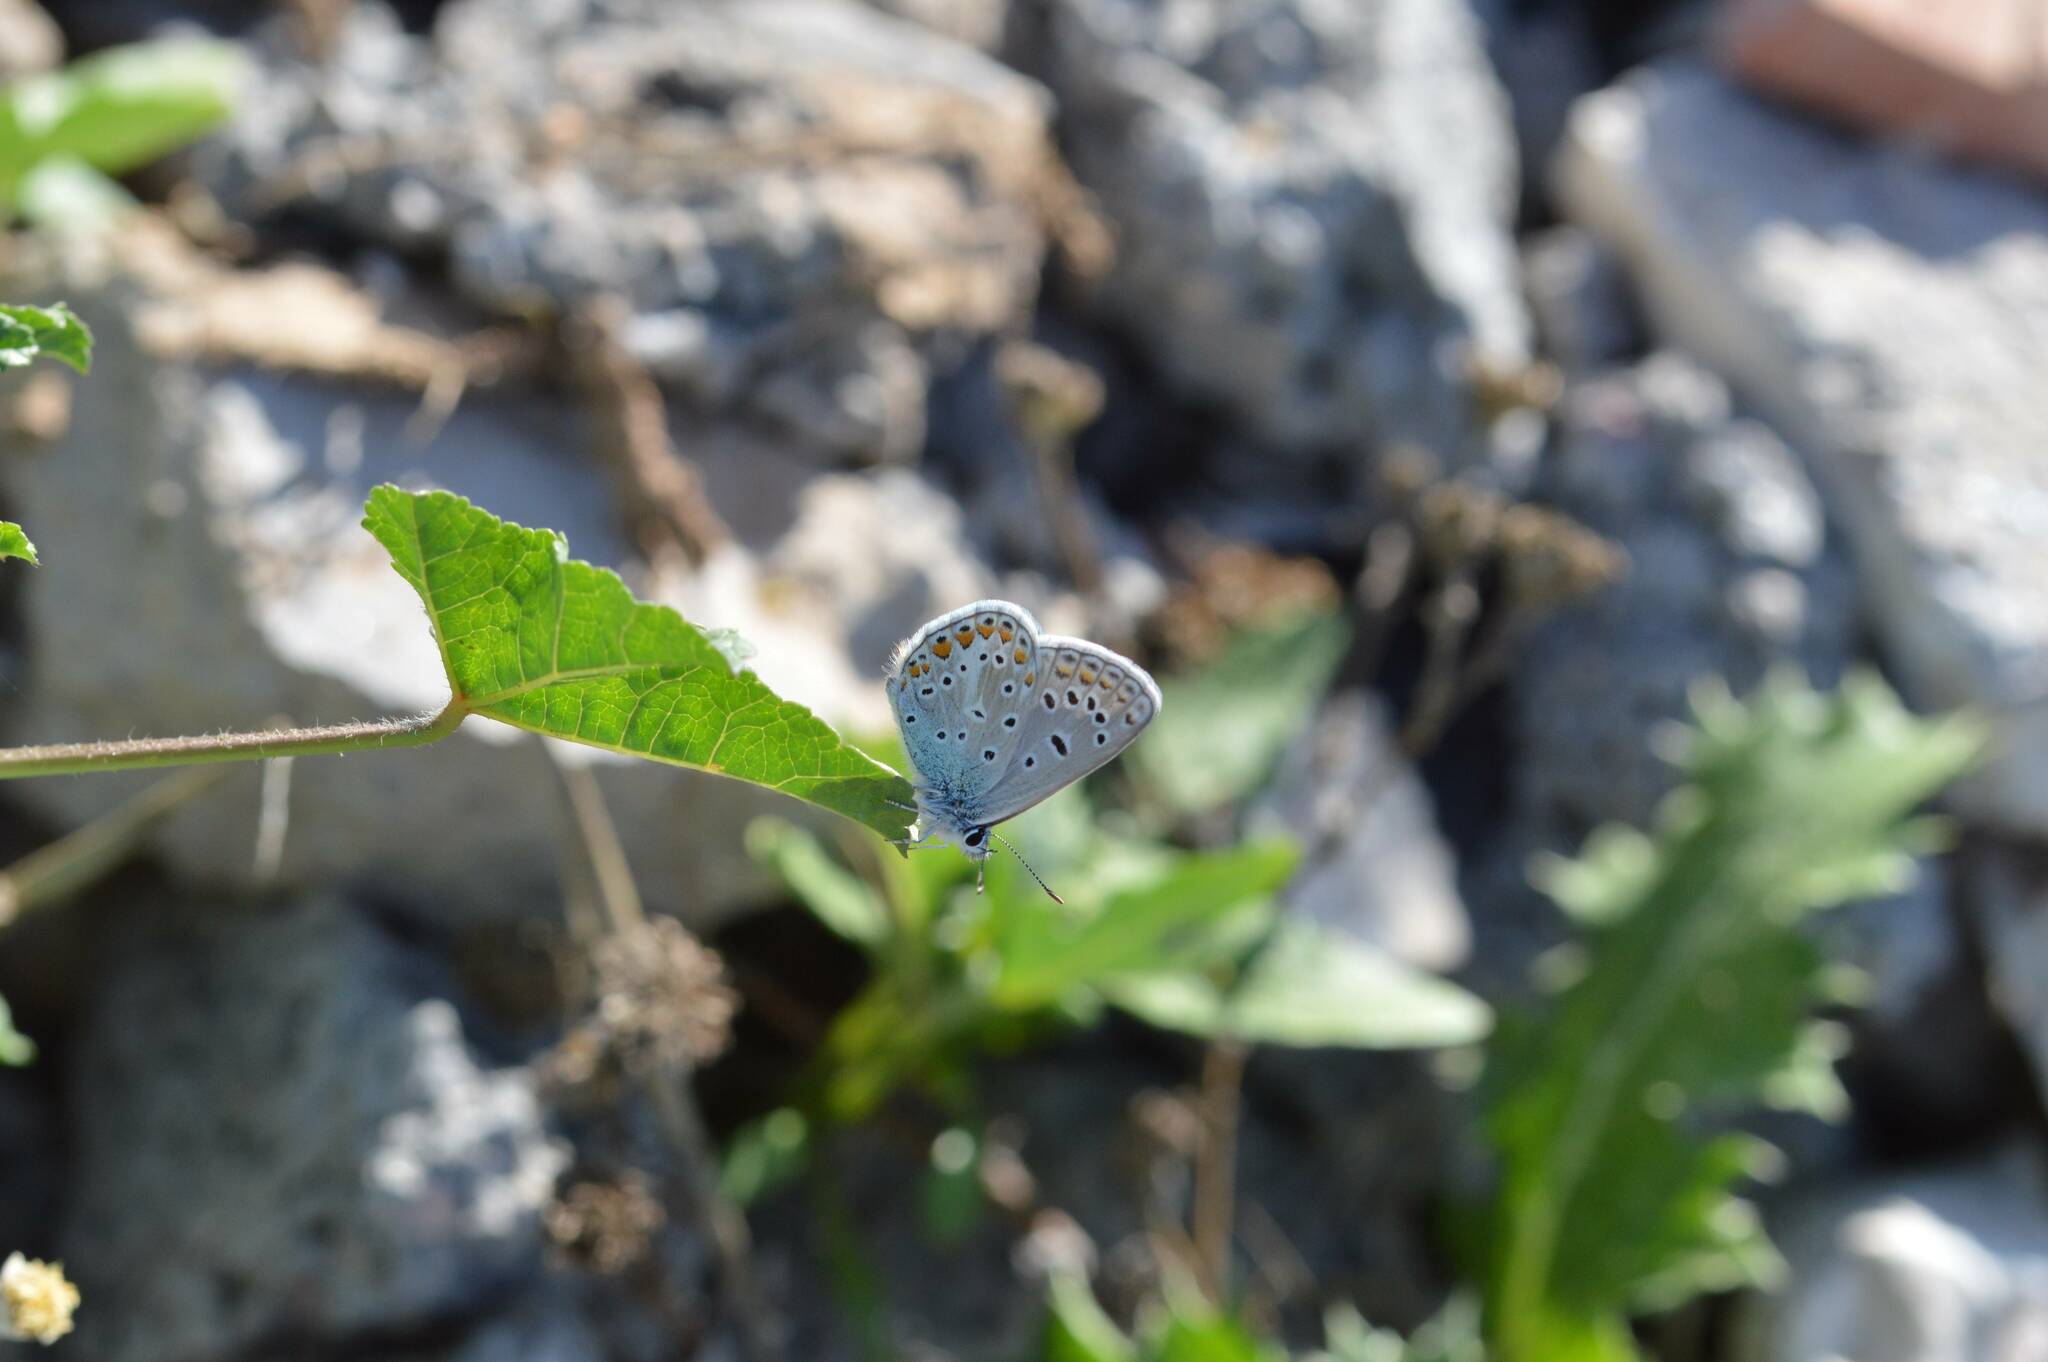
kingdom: Animalia
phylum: Arthropoda
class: Insecta
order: Lepidoptera
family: Lycaenidae
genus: Polyommatus
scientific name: Polyommatus celina
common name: Austaut's blue
